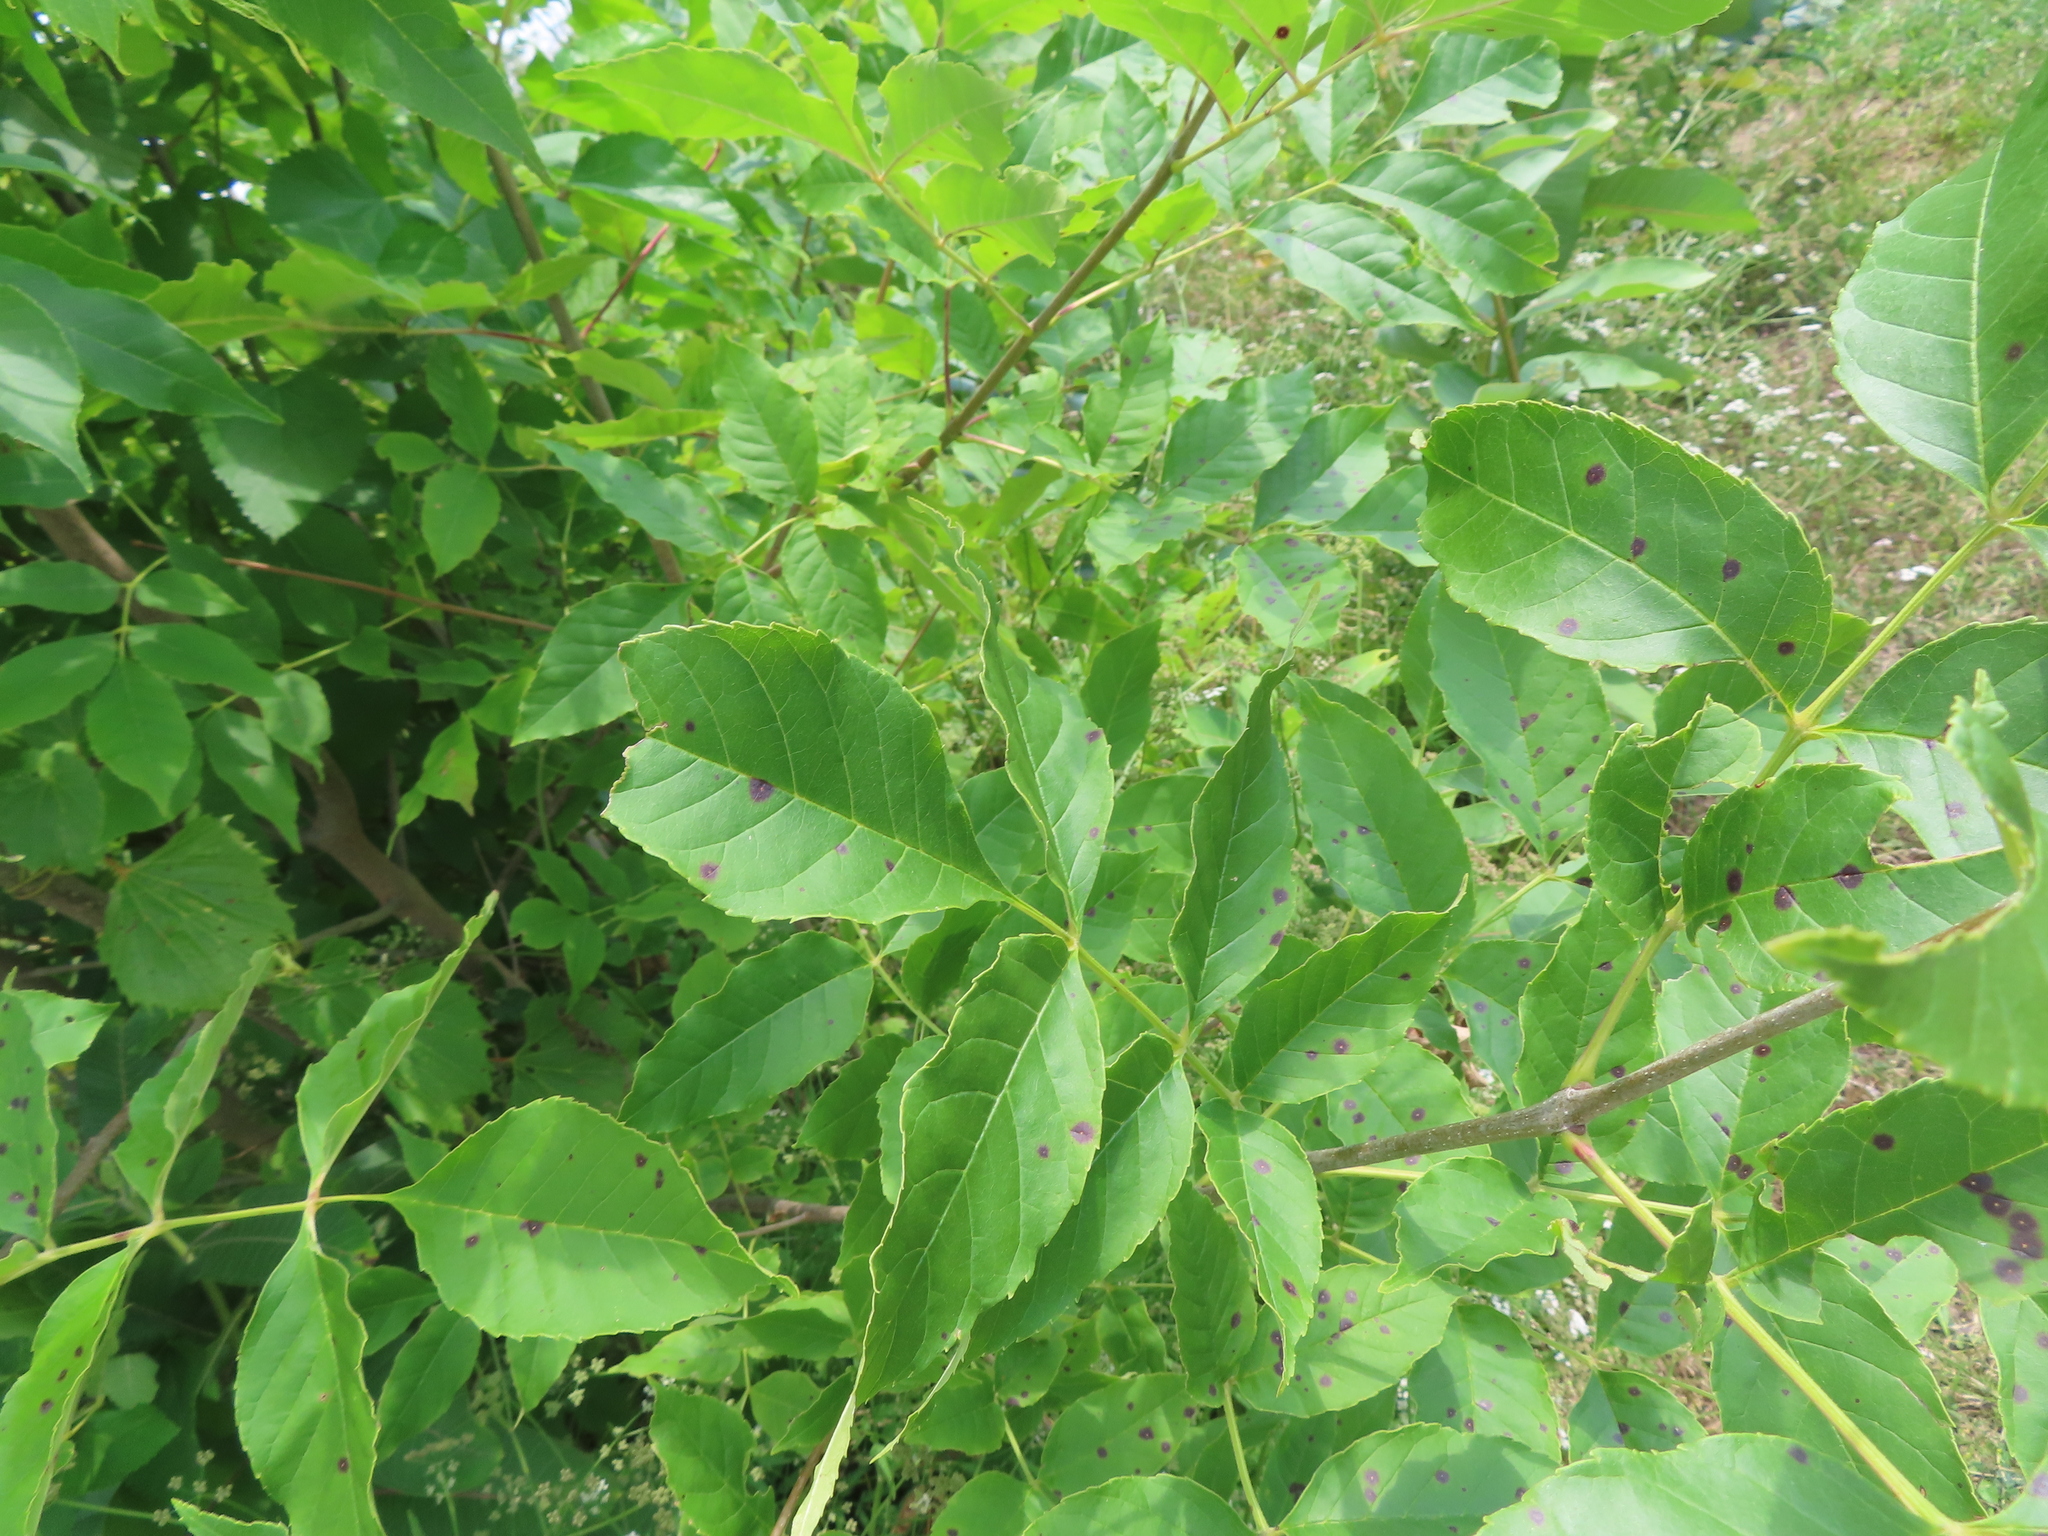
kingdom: Fungi
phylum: Ascomycota
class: Dothideomycetes
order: Mycosphaerellales
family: Mycosphaerellaceae
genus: Mycosphaerella
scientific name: Mycosphaerella fraxinicola
